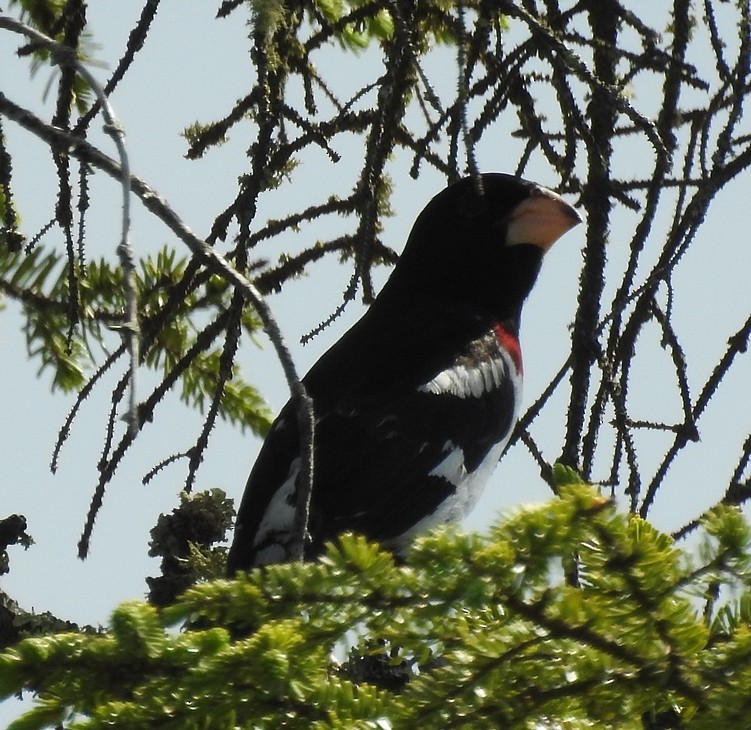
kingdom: Animalia
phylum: Chordata
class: Aves
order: Passeriformes
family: Cardinalidae
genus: Pheucticus
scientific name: Pheucticus ludovicianus
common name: Rose-breasted grosbeak
